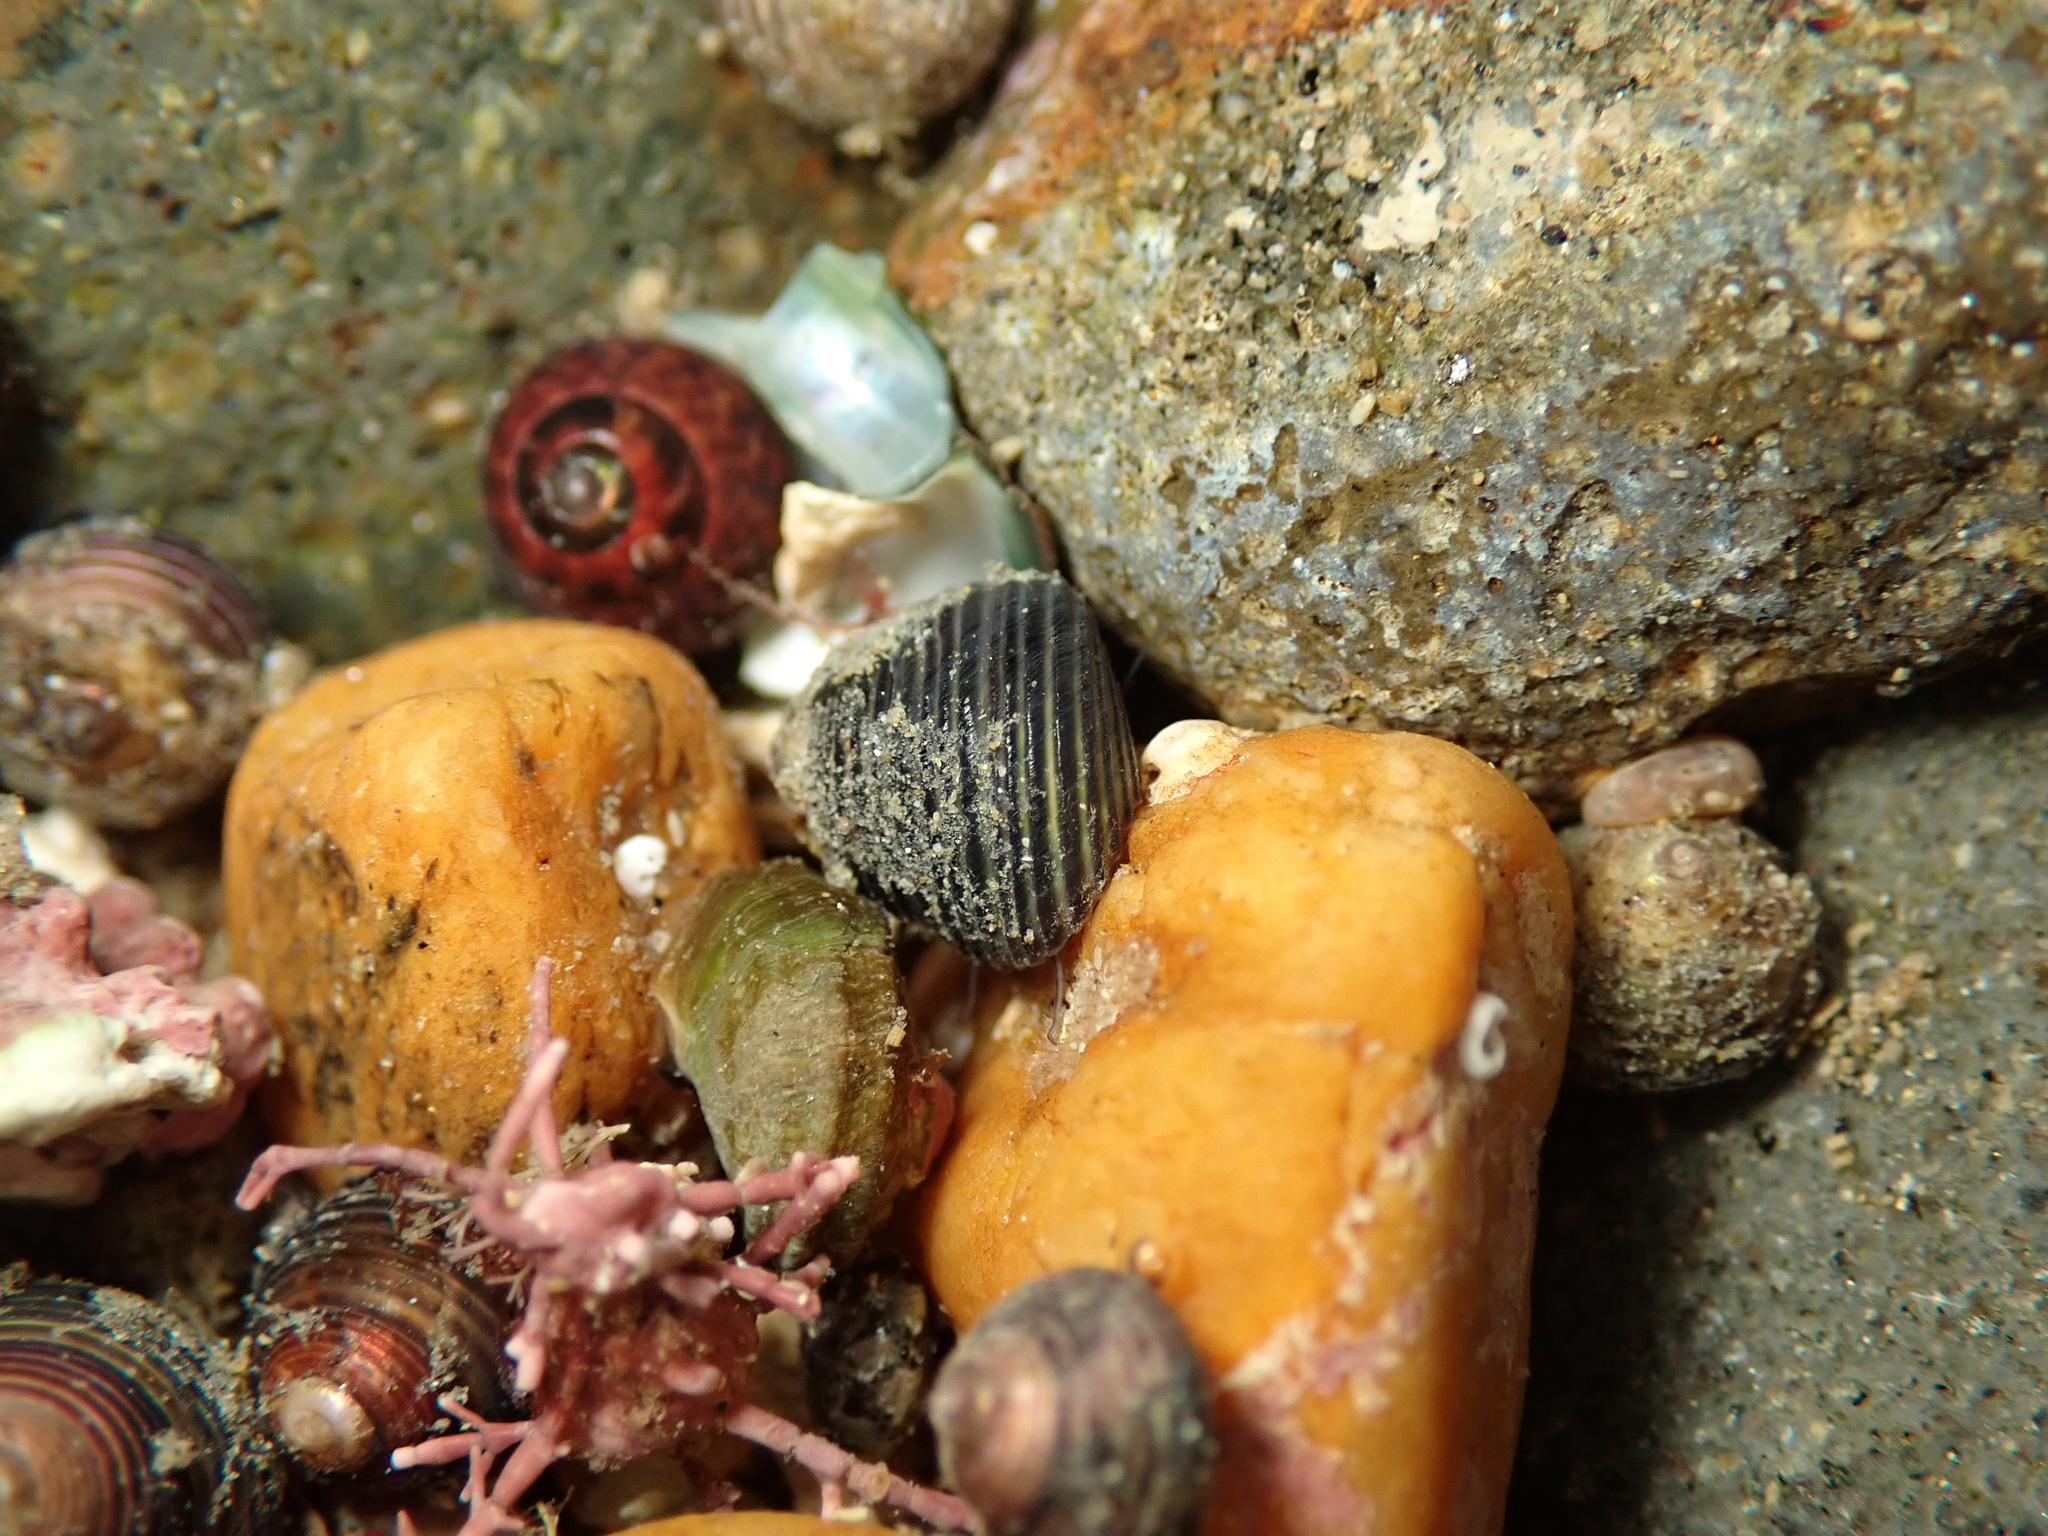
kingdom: Animalia
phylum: Mollusca
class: Gastropoda
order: Trochida
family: Trochidae
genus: Micrelenchus
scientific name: Micrelenchus tenebrosus
